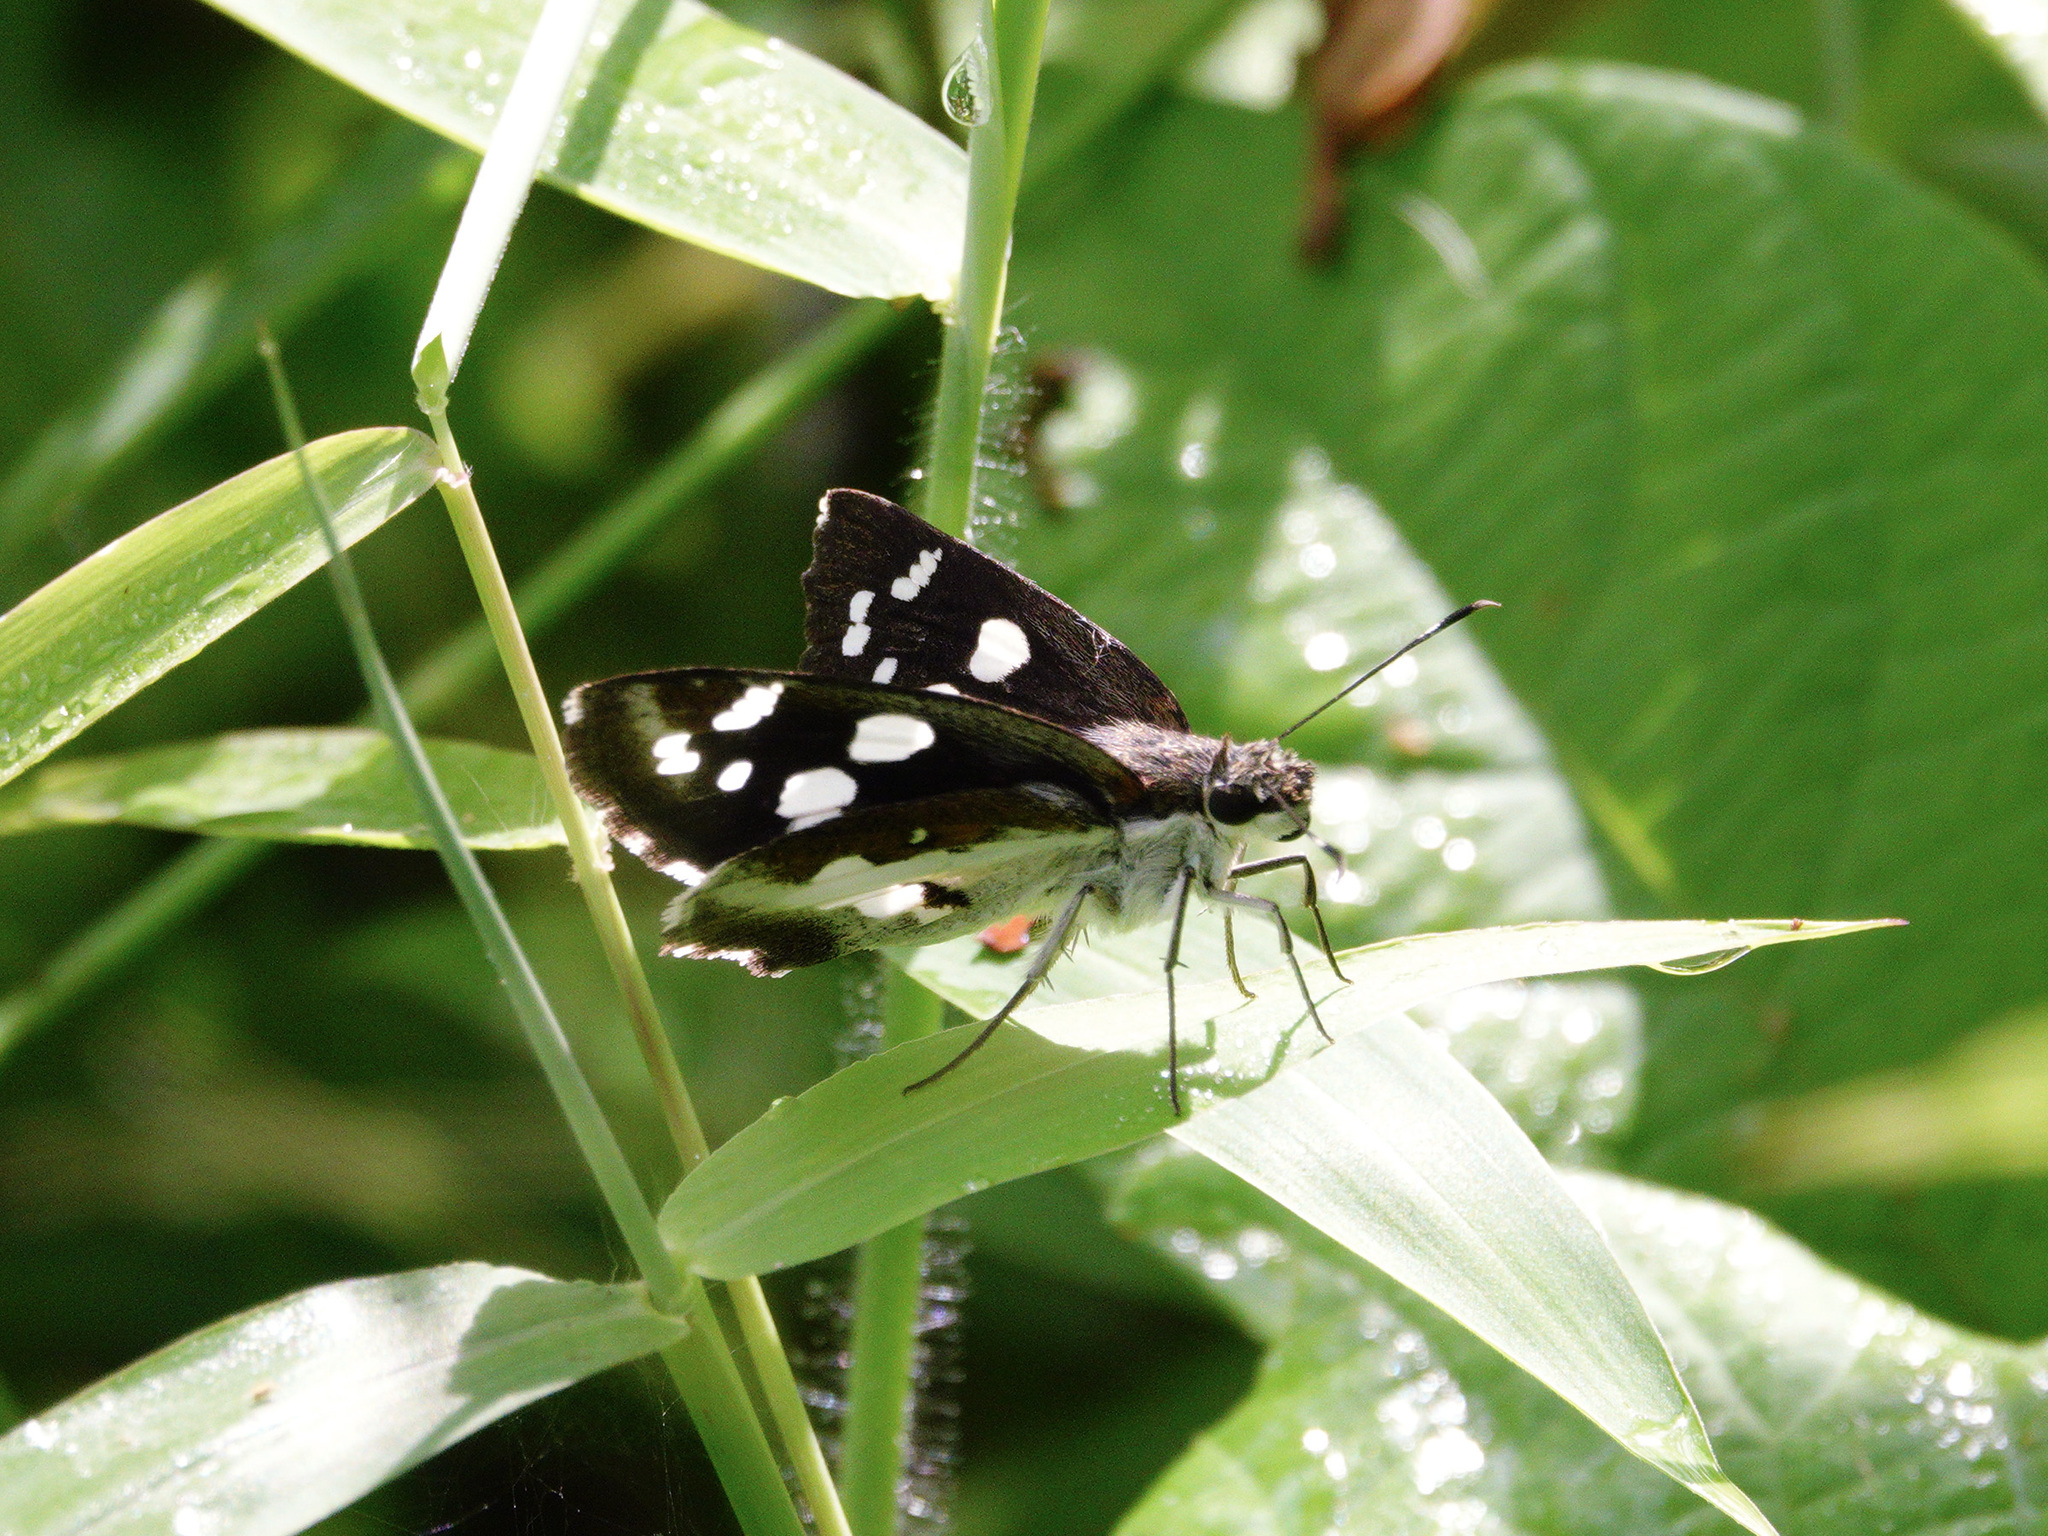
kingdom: Animalia
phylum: Arthropoda
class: Insecta
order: Lepidoptera
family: Hesperiidae
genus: Udaspes
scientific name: Udaspes folus
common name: Grass demon
